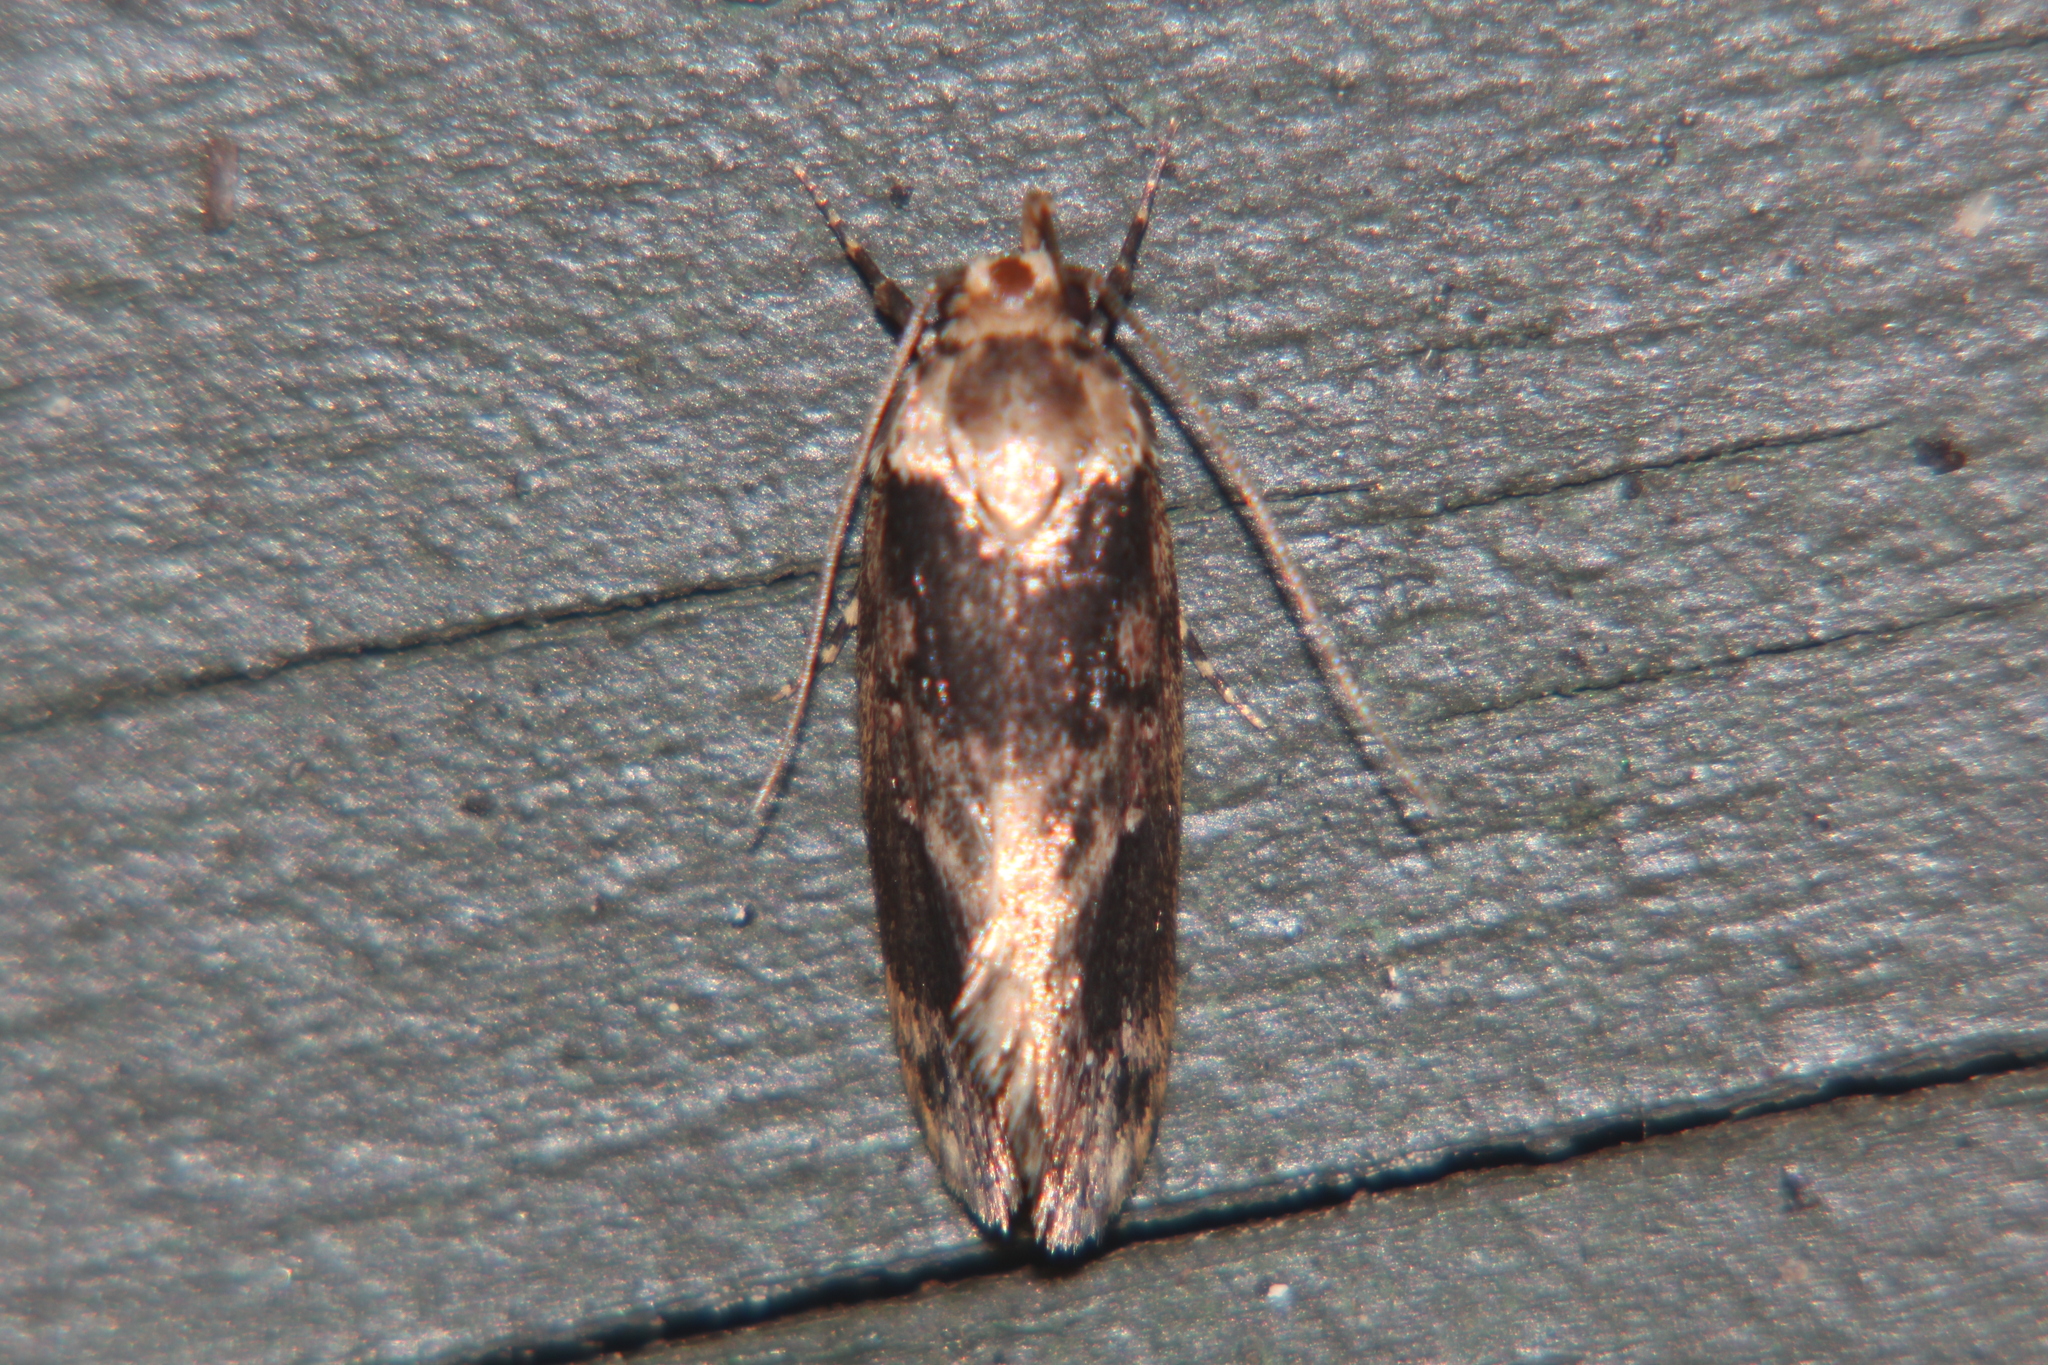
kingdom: Animalia
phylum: Arthropoda
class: Insecta
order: Lepidoptera
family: Oecophoridae
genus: Barea
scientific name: Barea consignatella
